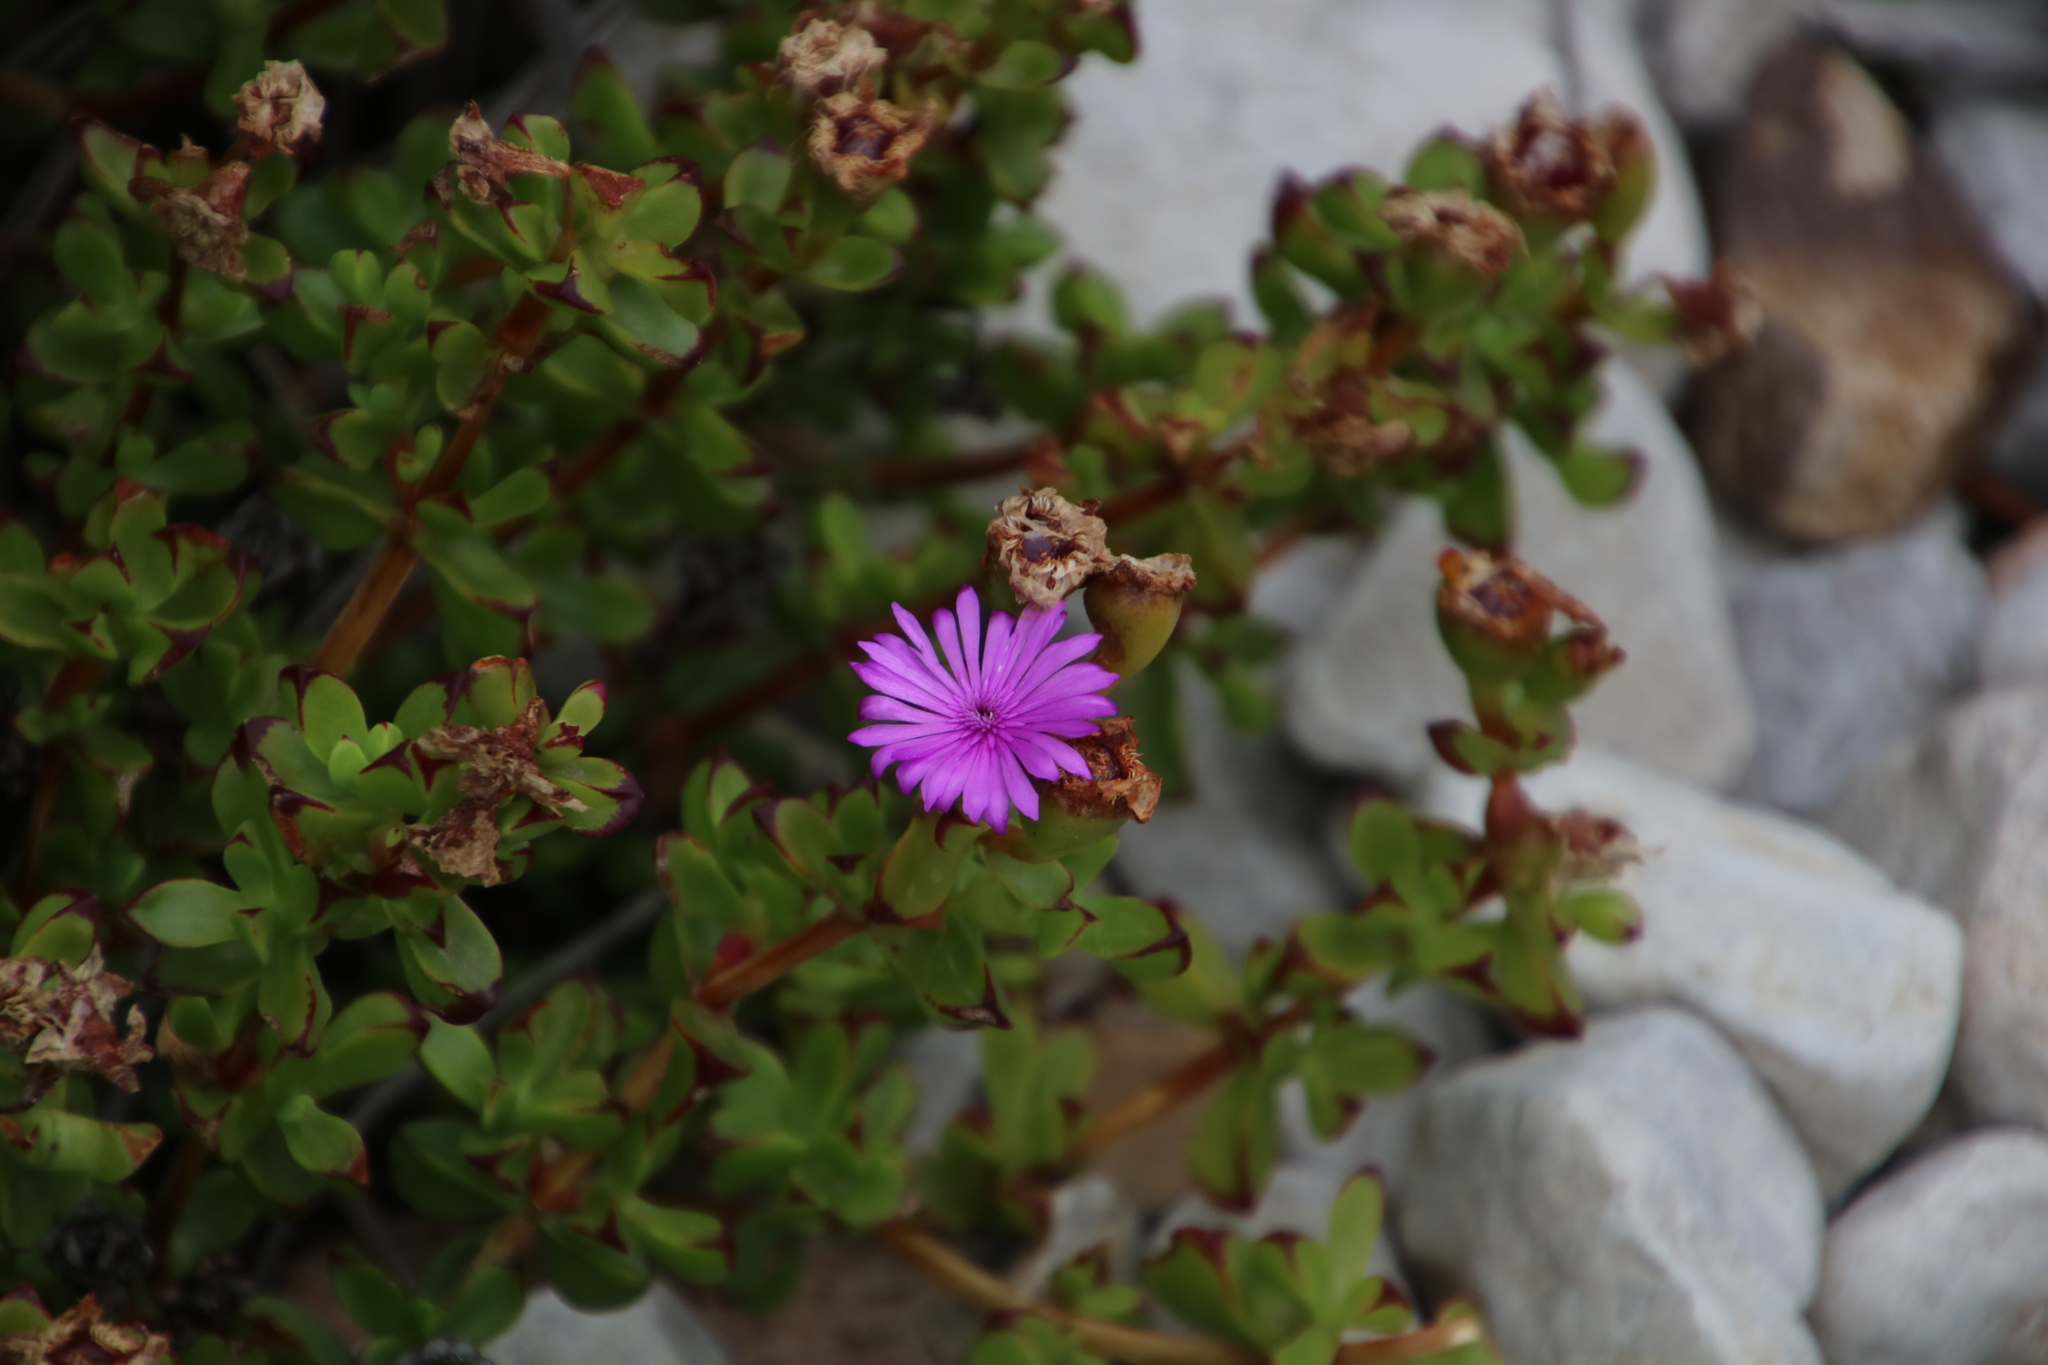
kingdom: Plantae
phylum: Tracheophyta
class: Magnoliopsida
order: Caryophyllales
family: Aizoaceae
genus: Erepsia
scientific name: Erepsia inclaudens
